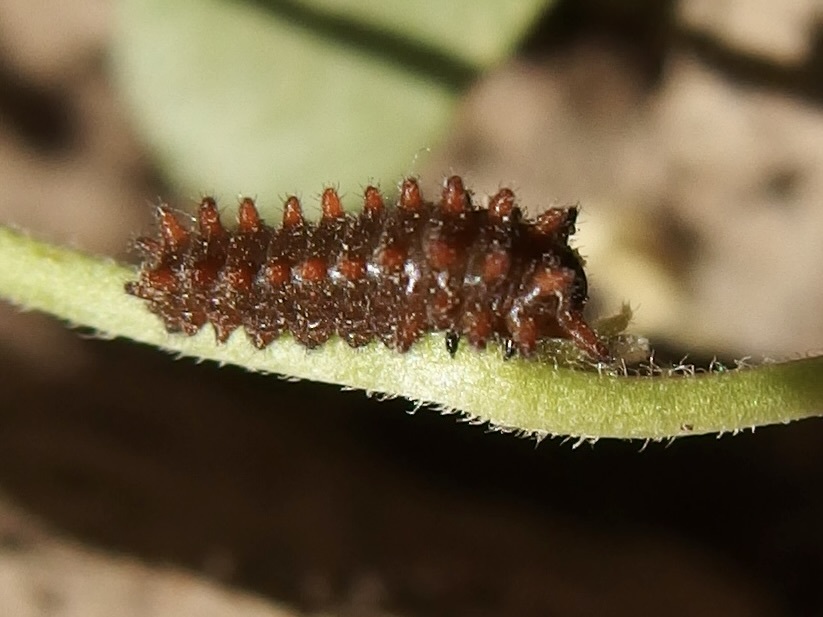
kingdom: Animalia
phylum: Arthropoda
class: Insecta
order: Lepidoptera
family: Papilionidae
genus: Battus
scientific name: Battus philenor
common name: Pipevine swallowtail
